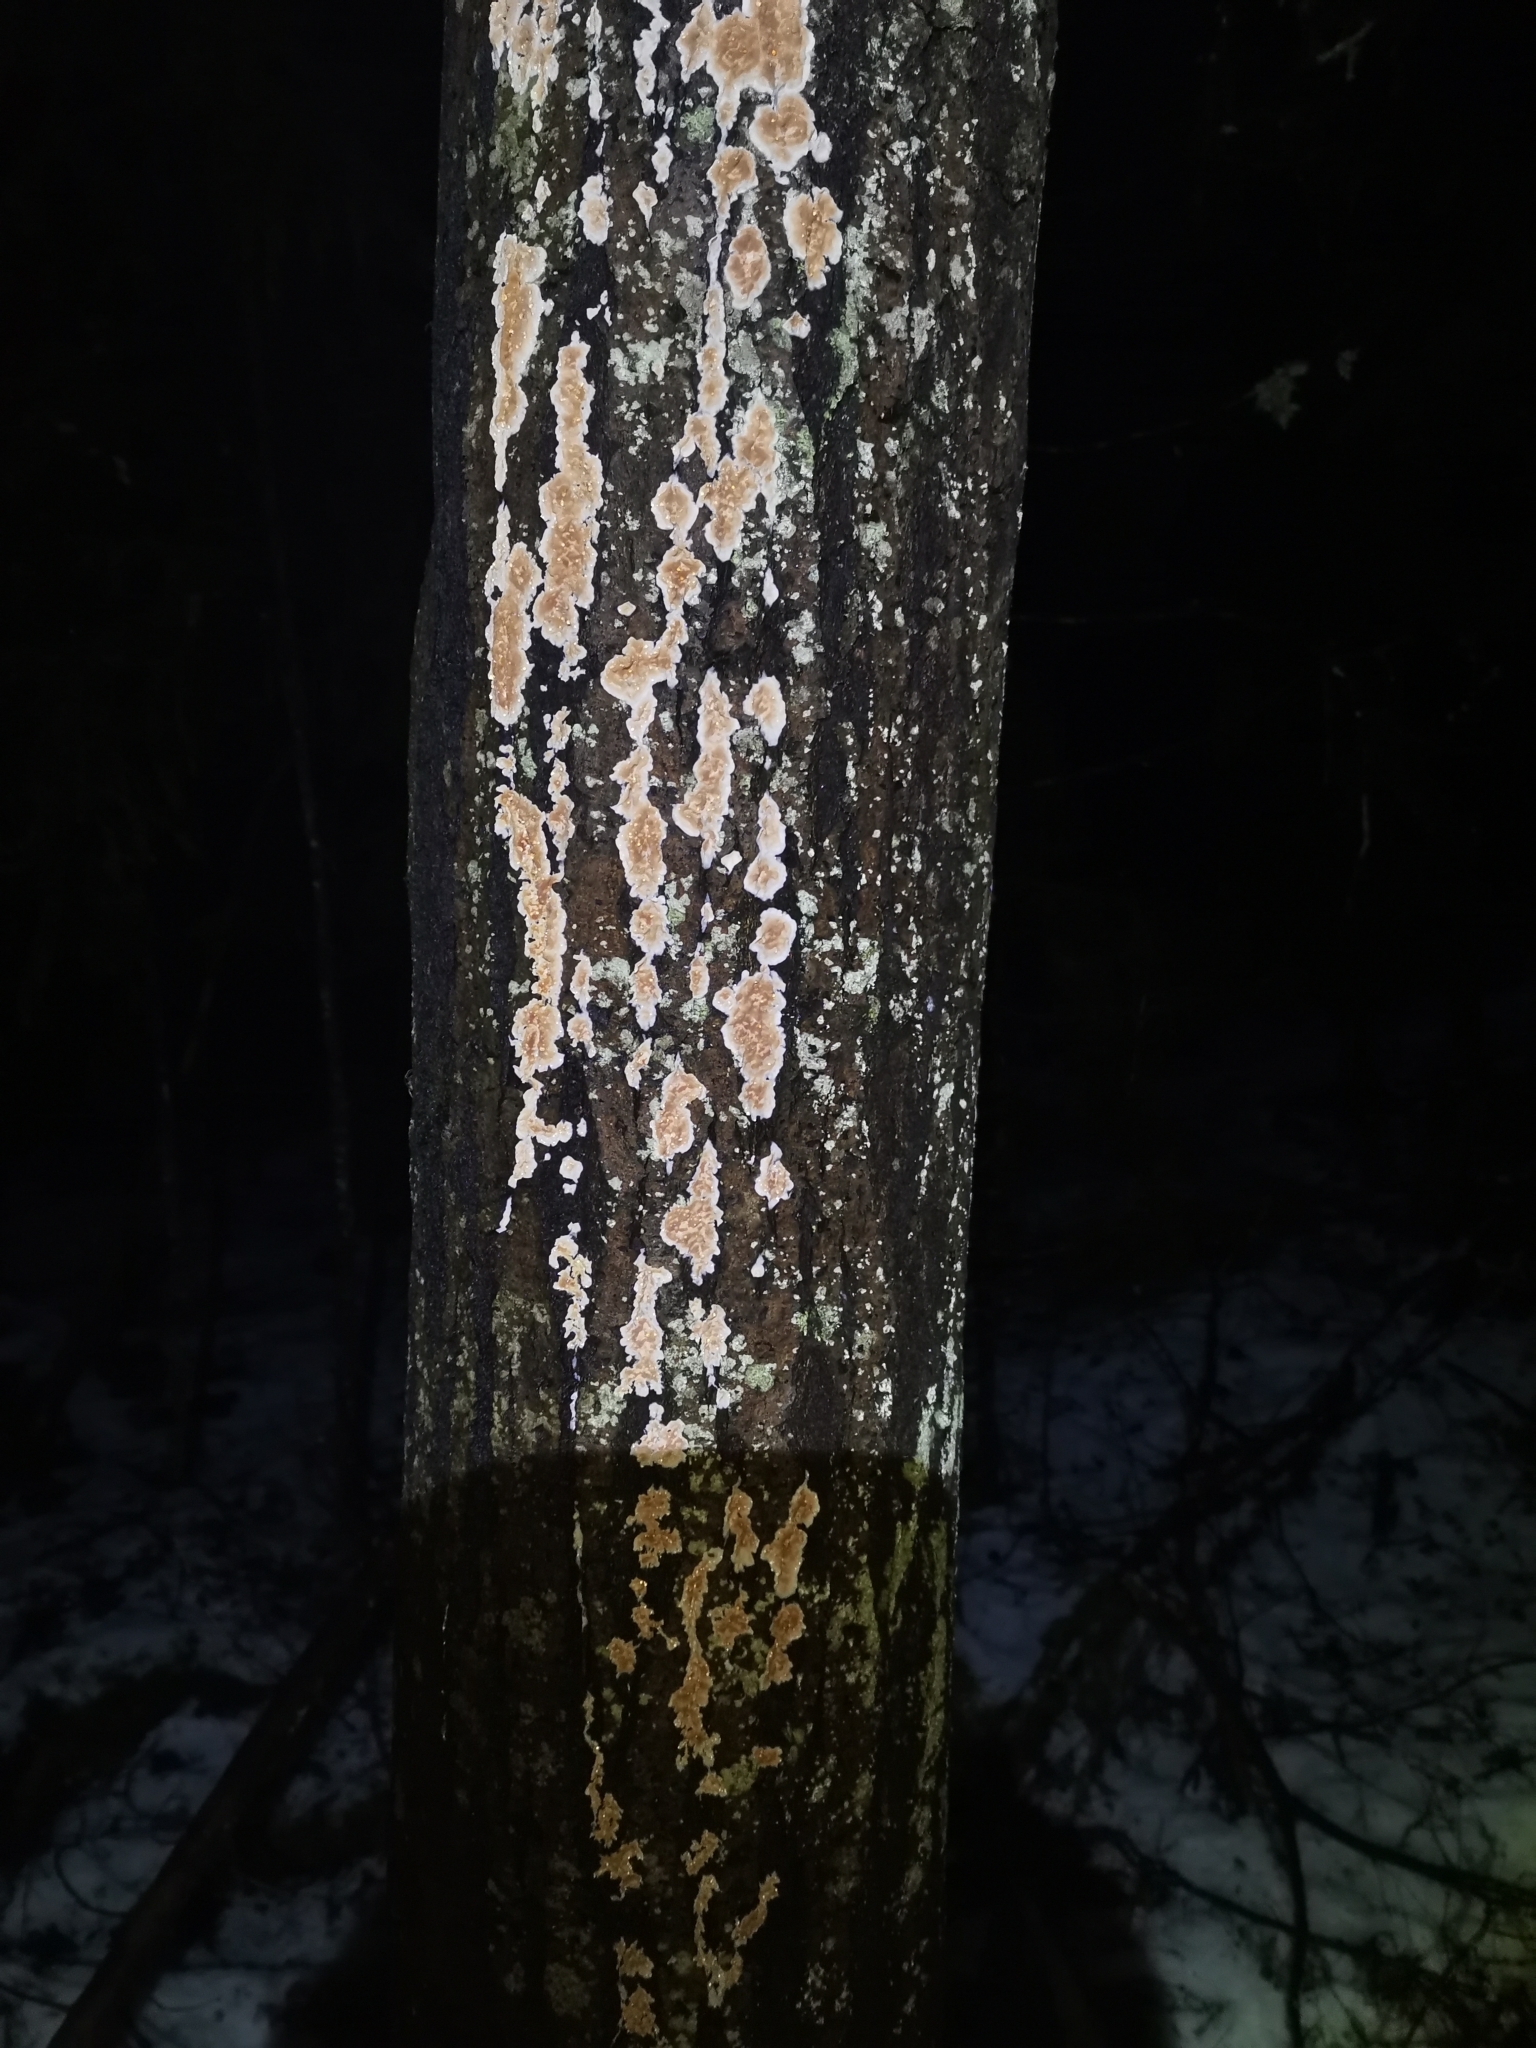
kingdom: Fungi
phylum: Basidiomycota
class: Agaricomycetes
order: Agaricales
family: Physalacriaceae
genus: Cylindrobasidium
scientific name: Cylindrobasidium evolvens
